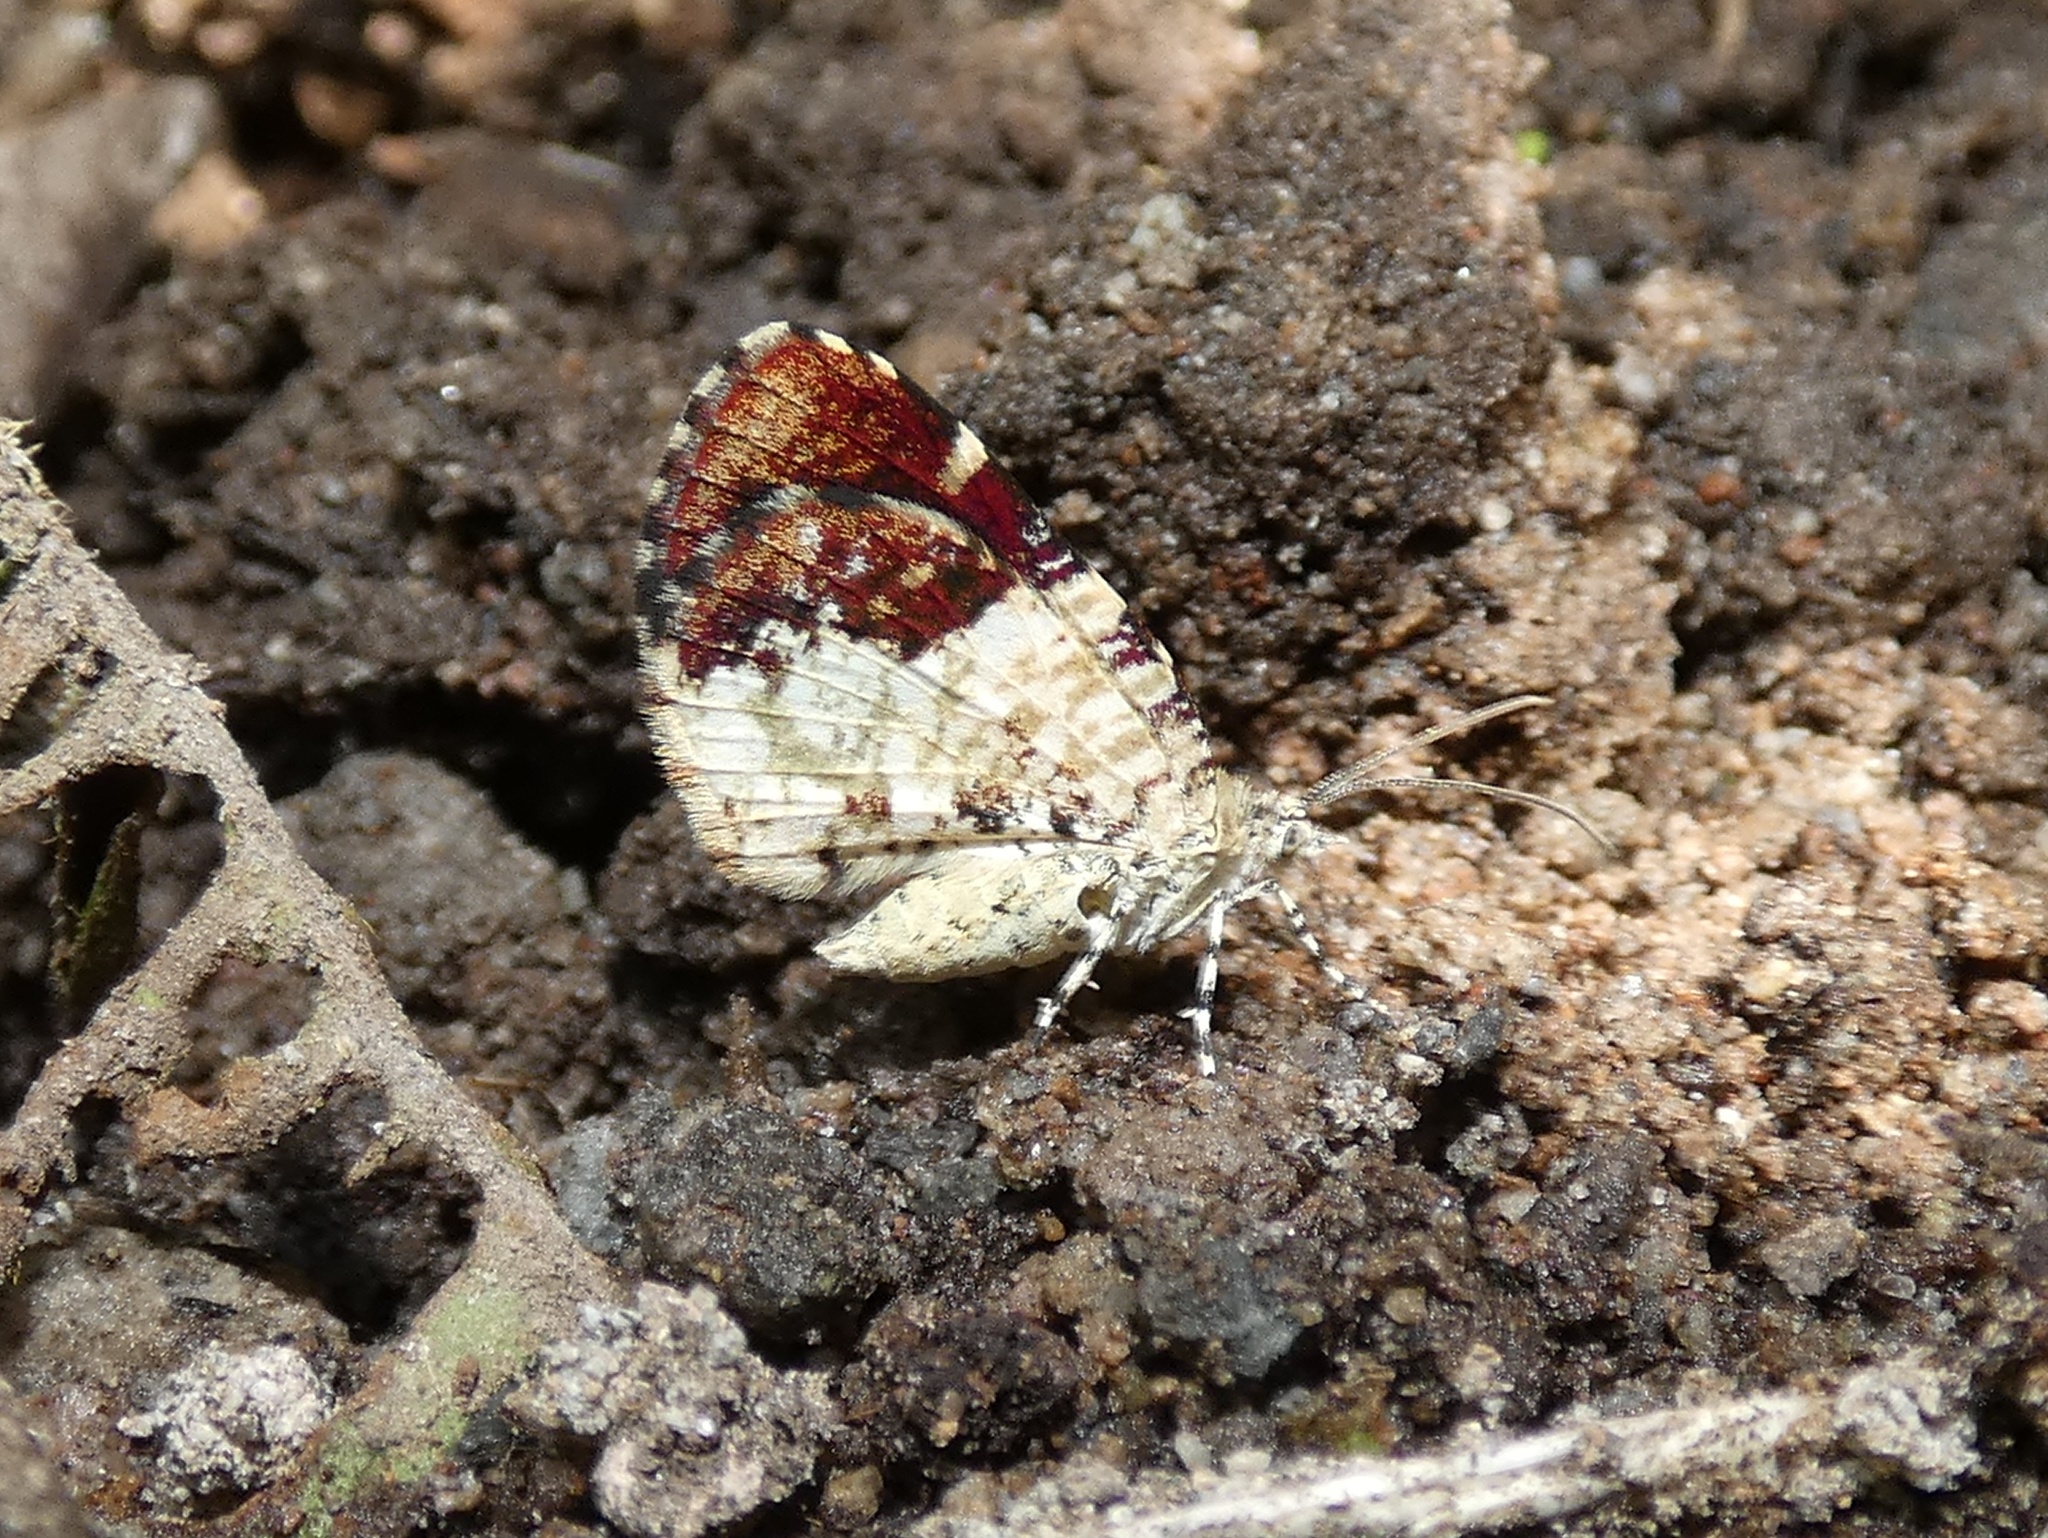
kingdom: Animalia
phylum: Arthropoda
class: Insecta
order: Lepidoptera
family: Geometridae
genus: Heterusia
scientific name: Heterusia atalantata
